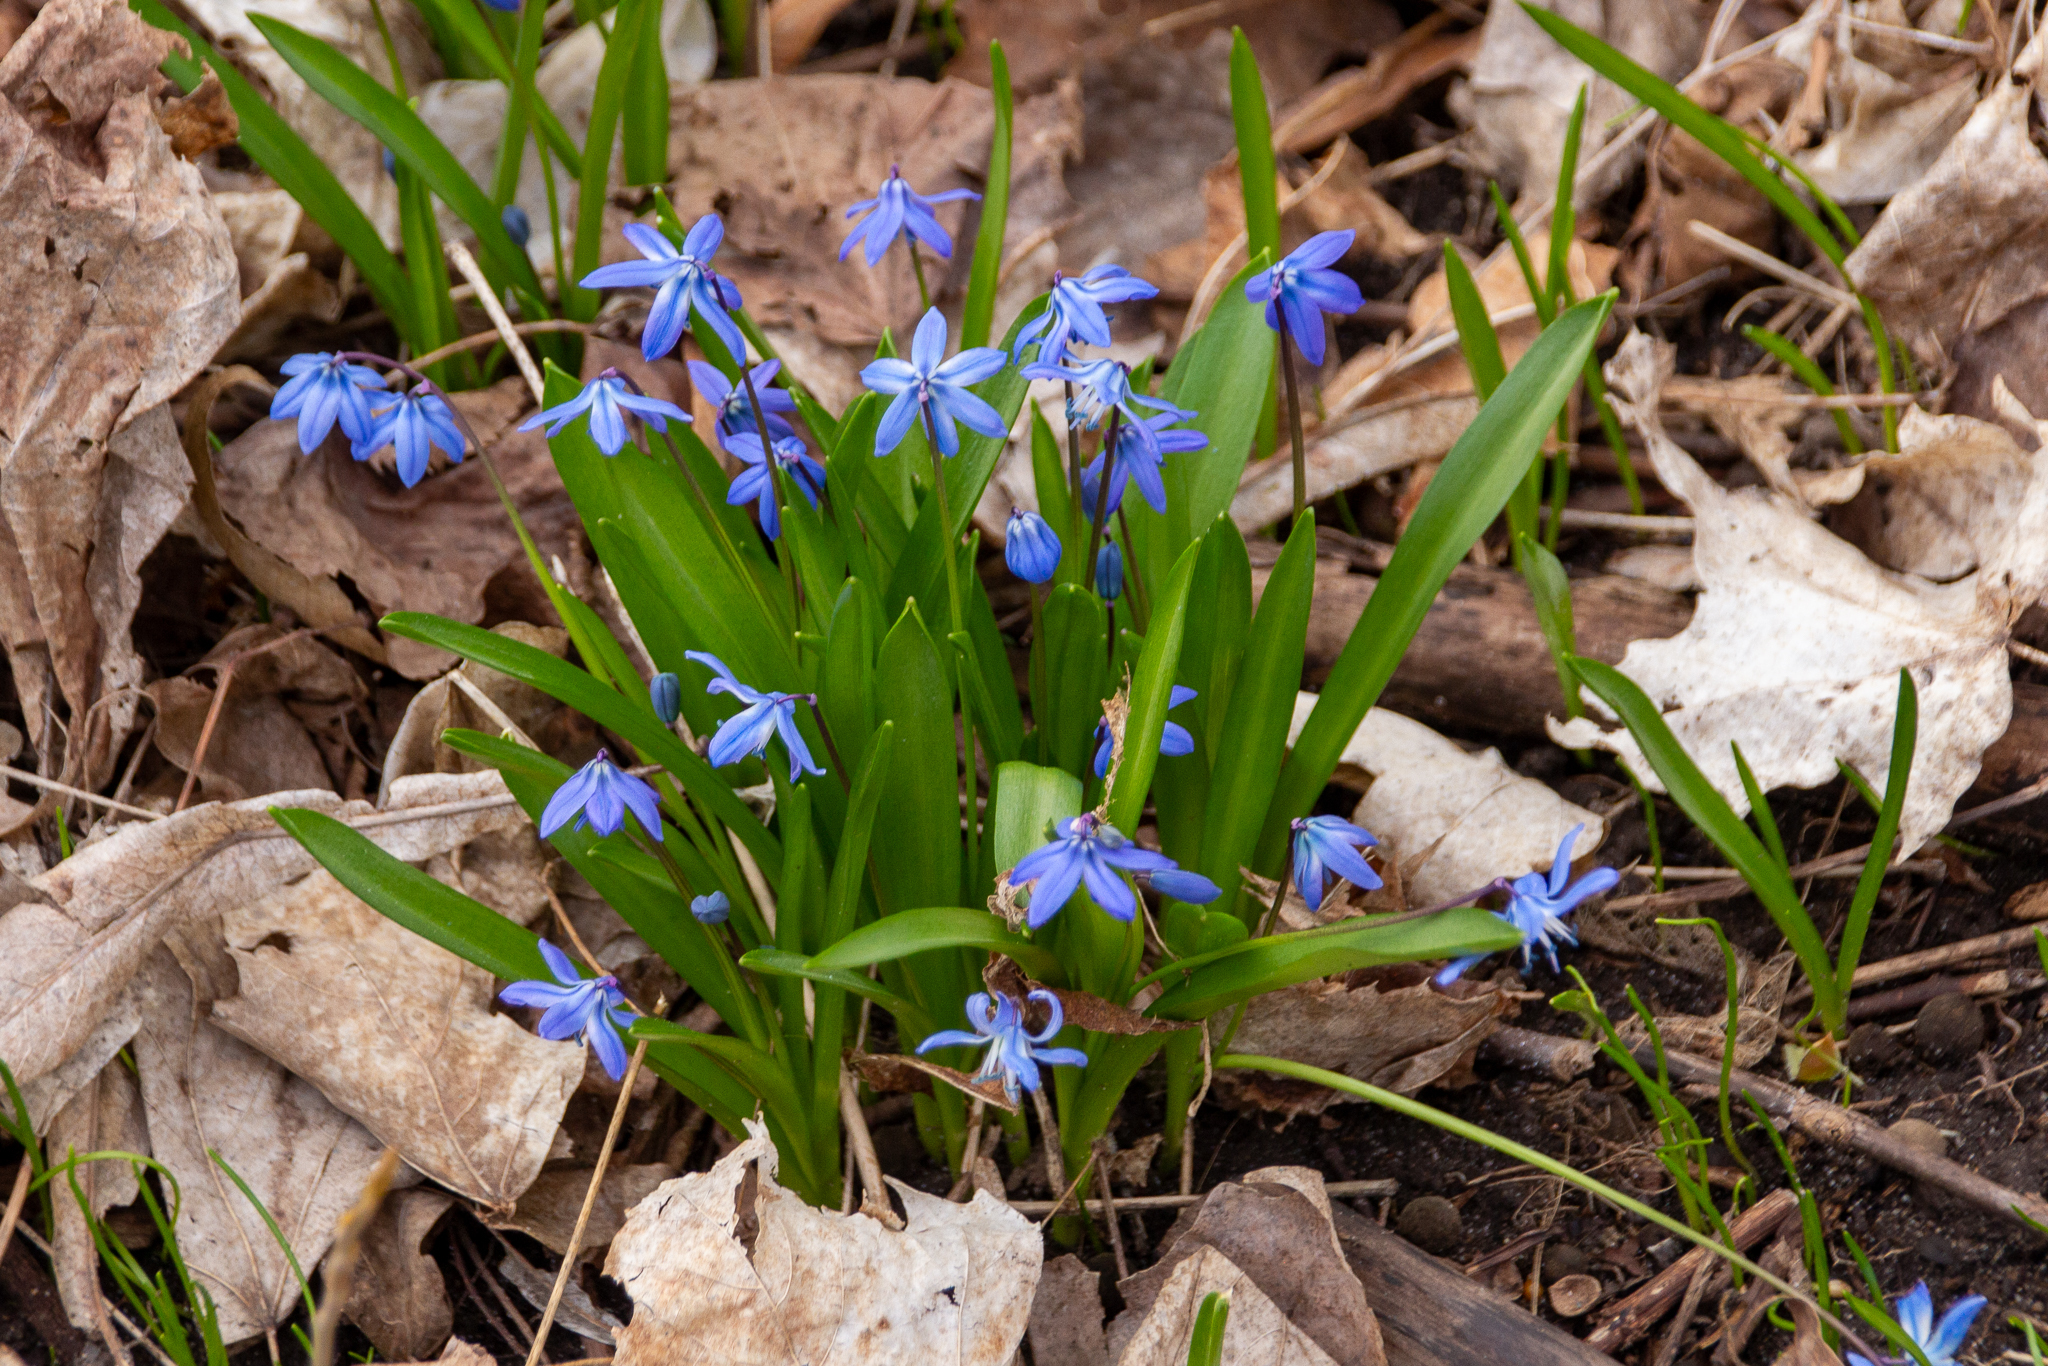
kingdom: Plantae
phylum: Tracheophyta
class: Liliopsida
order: Asparagales
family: Asparagaceae
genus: Scilla
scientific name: Scilla siberica
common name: Siberian squill
